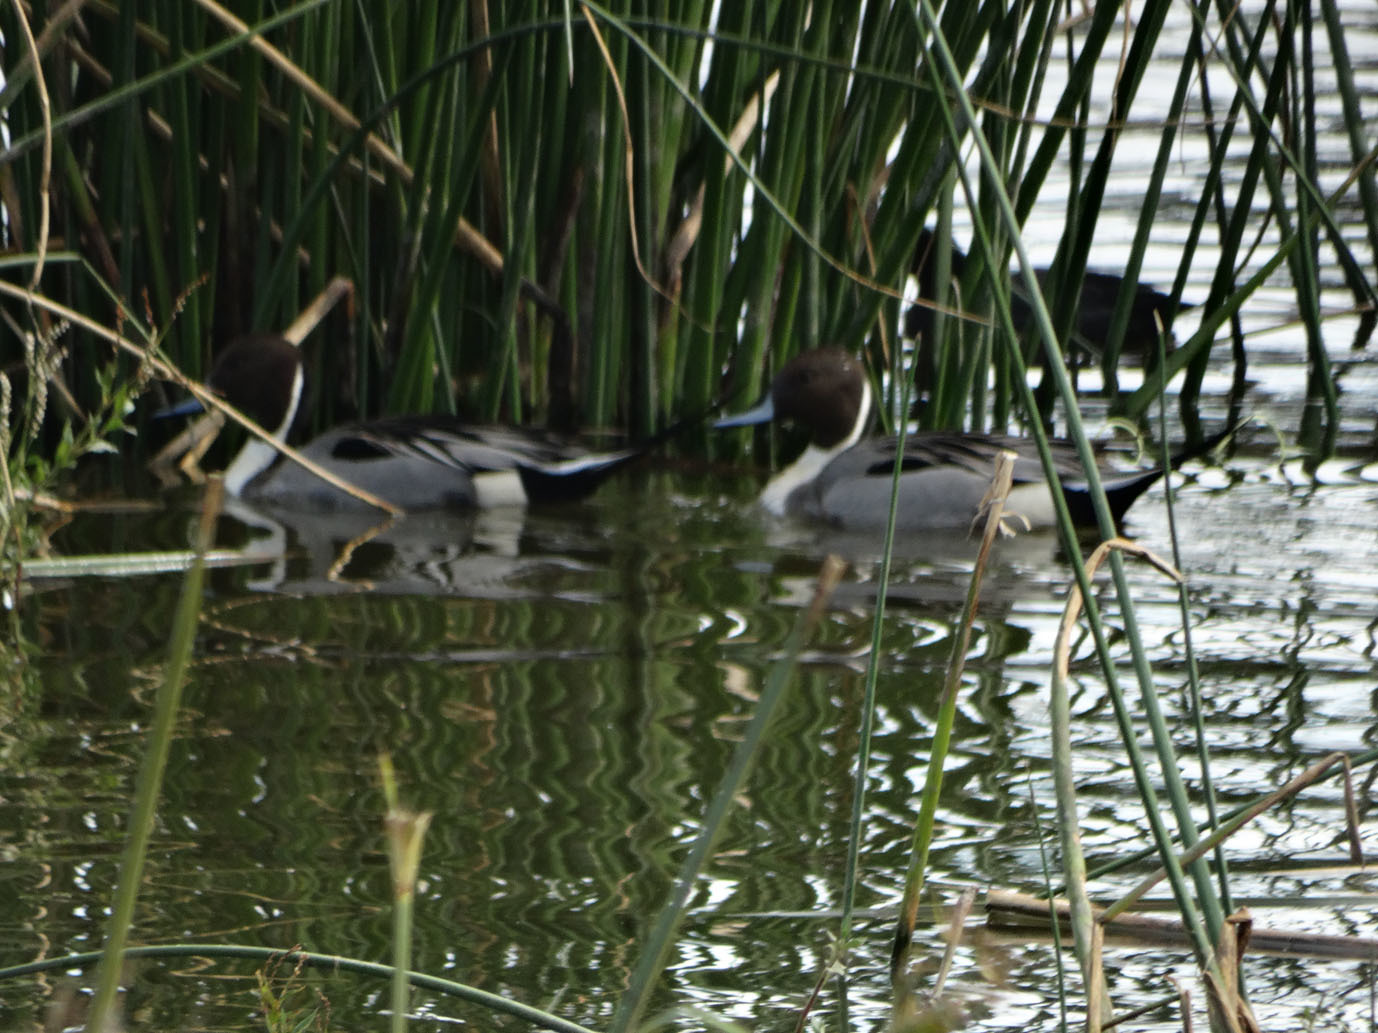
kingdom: Animalia
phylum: Chordata
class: Aves
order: Anseriformes
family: Anatidae
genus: Anas
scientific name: Anas acuta
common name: Northern pintail
